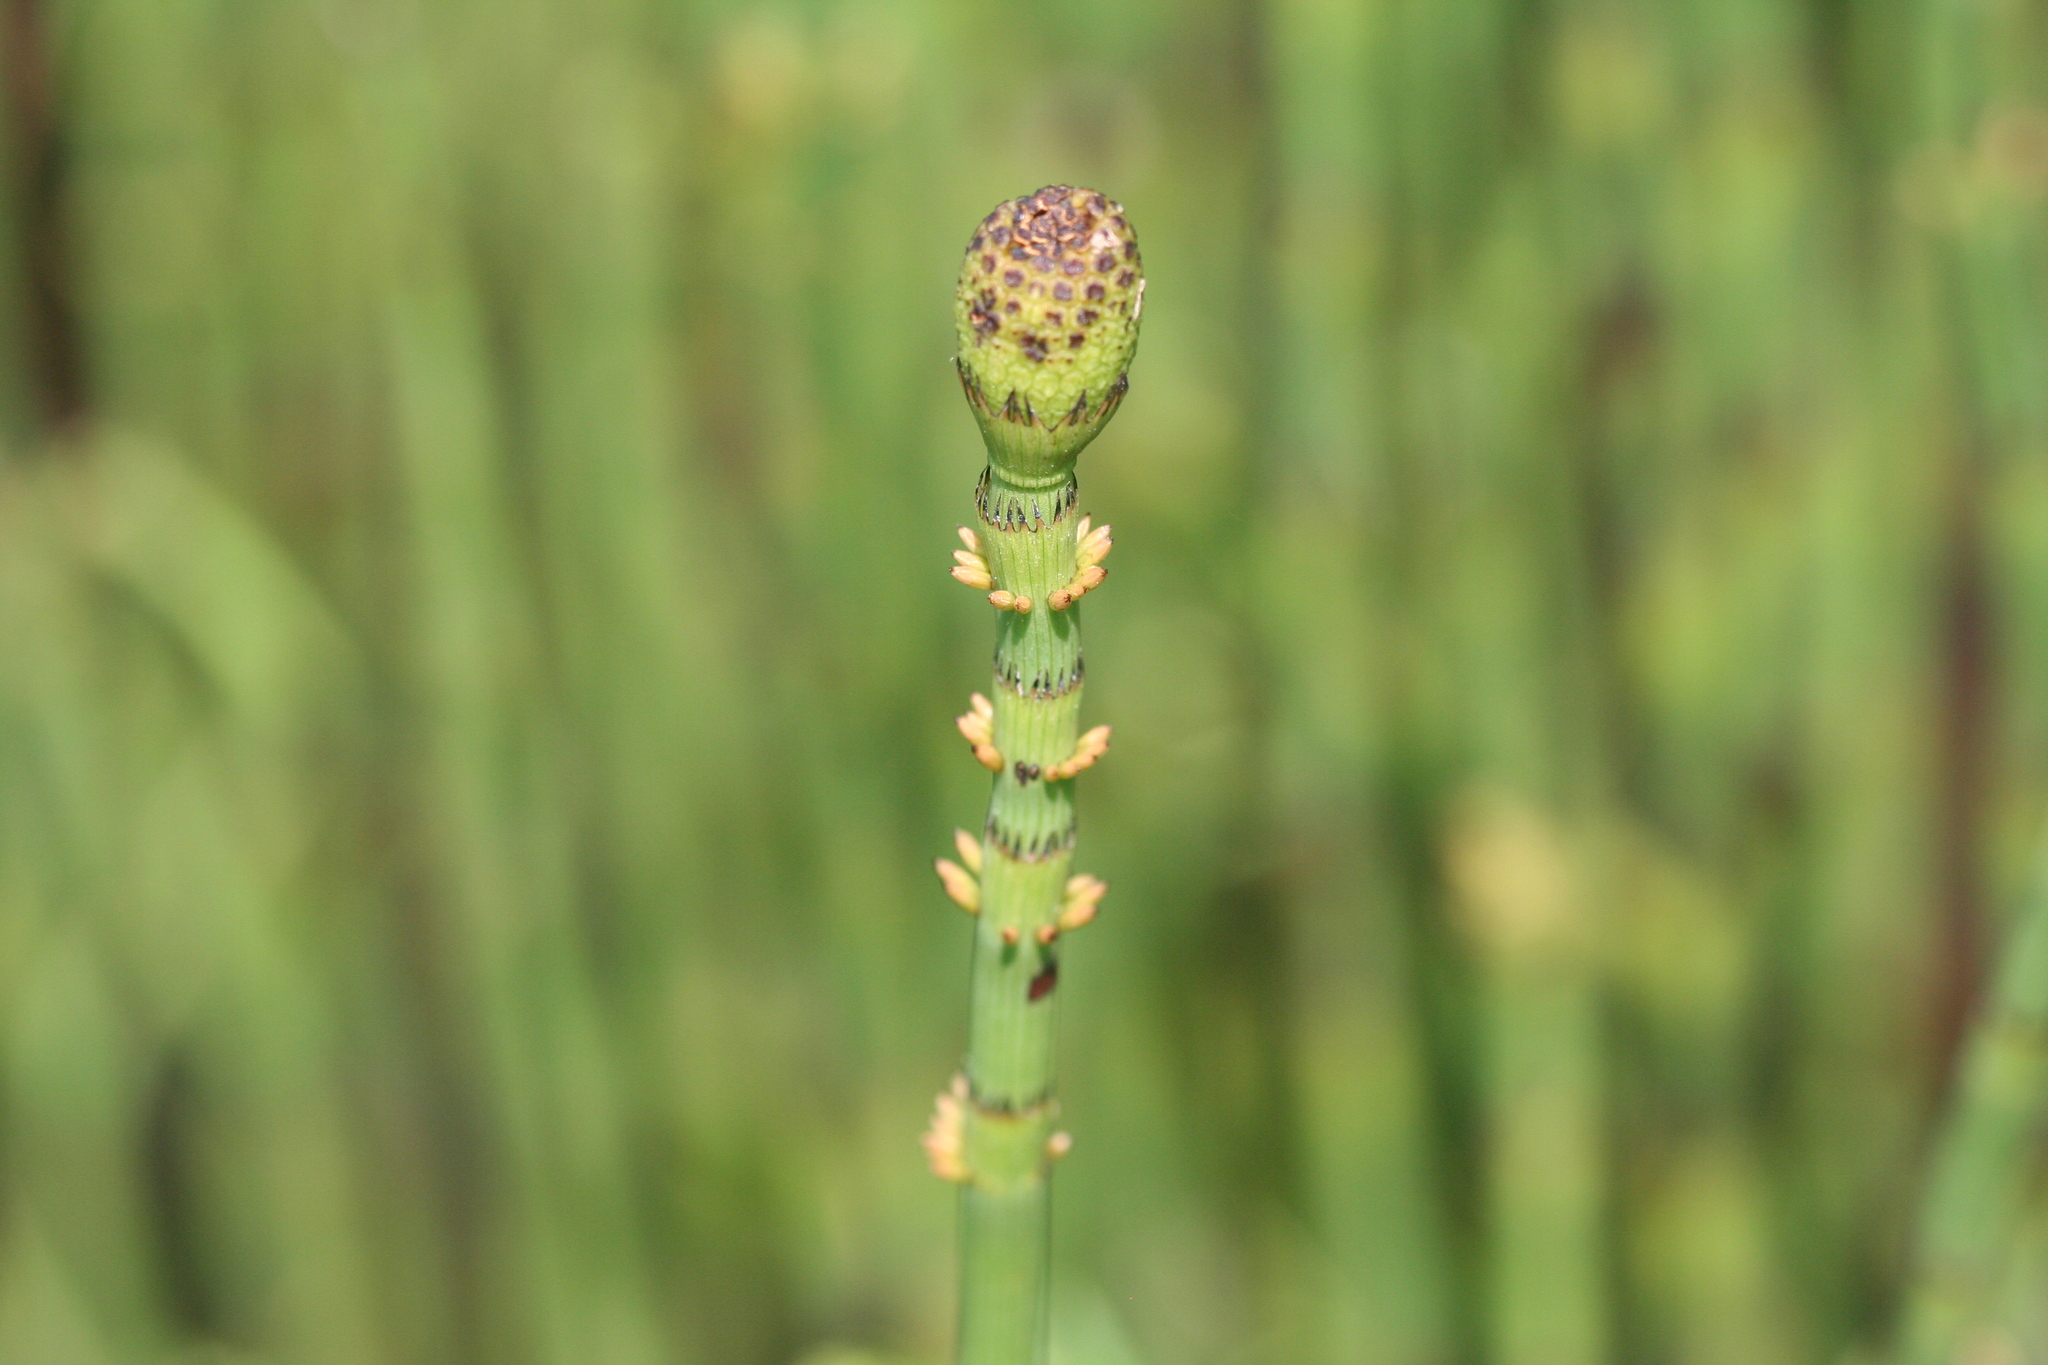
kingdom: Plantae
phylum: Tracheophyta
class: Polypodiopsida
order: Equisetales
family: Equisetaceae
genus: Equisetum
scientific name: Equisetum fluviatile
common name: Water horsetail
